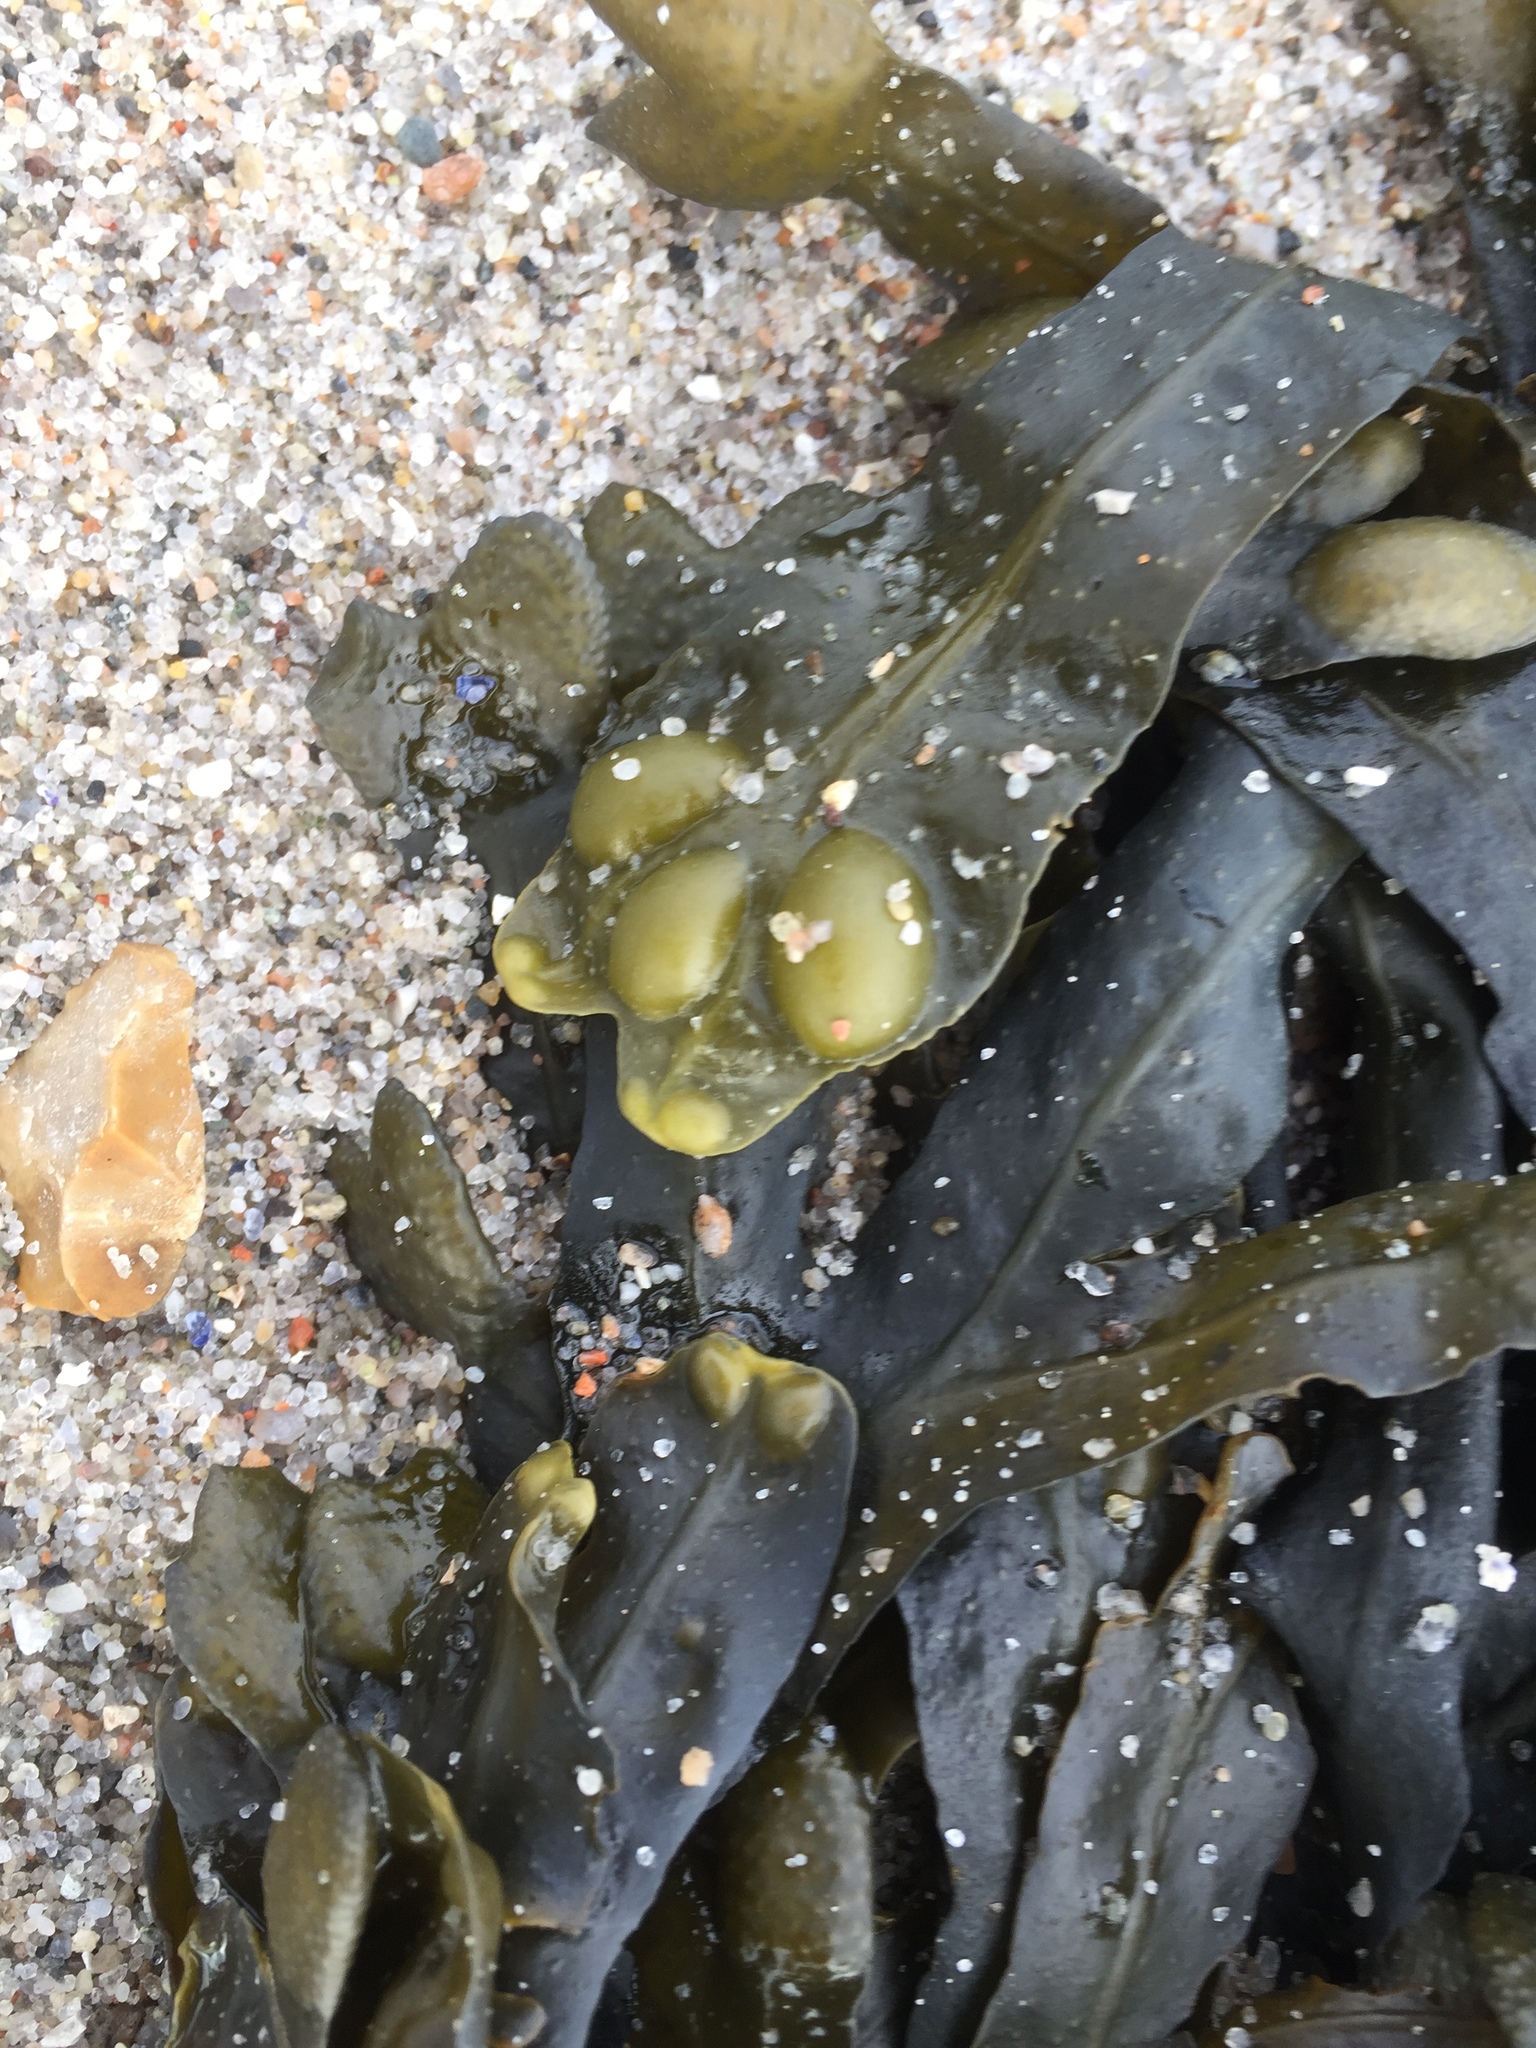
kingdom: Chromista
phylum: Ochrophyta
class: Phaeophyceae
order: Fucales
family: Fucaceae
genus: Fucus
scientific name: Fucus vesiculosus
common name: Bladder wrack
